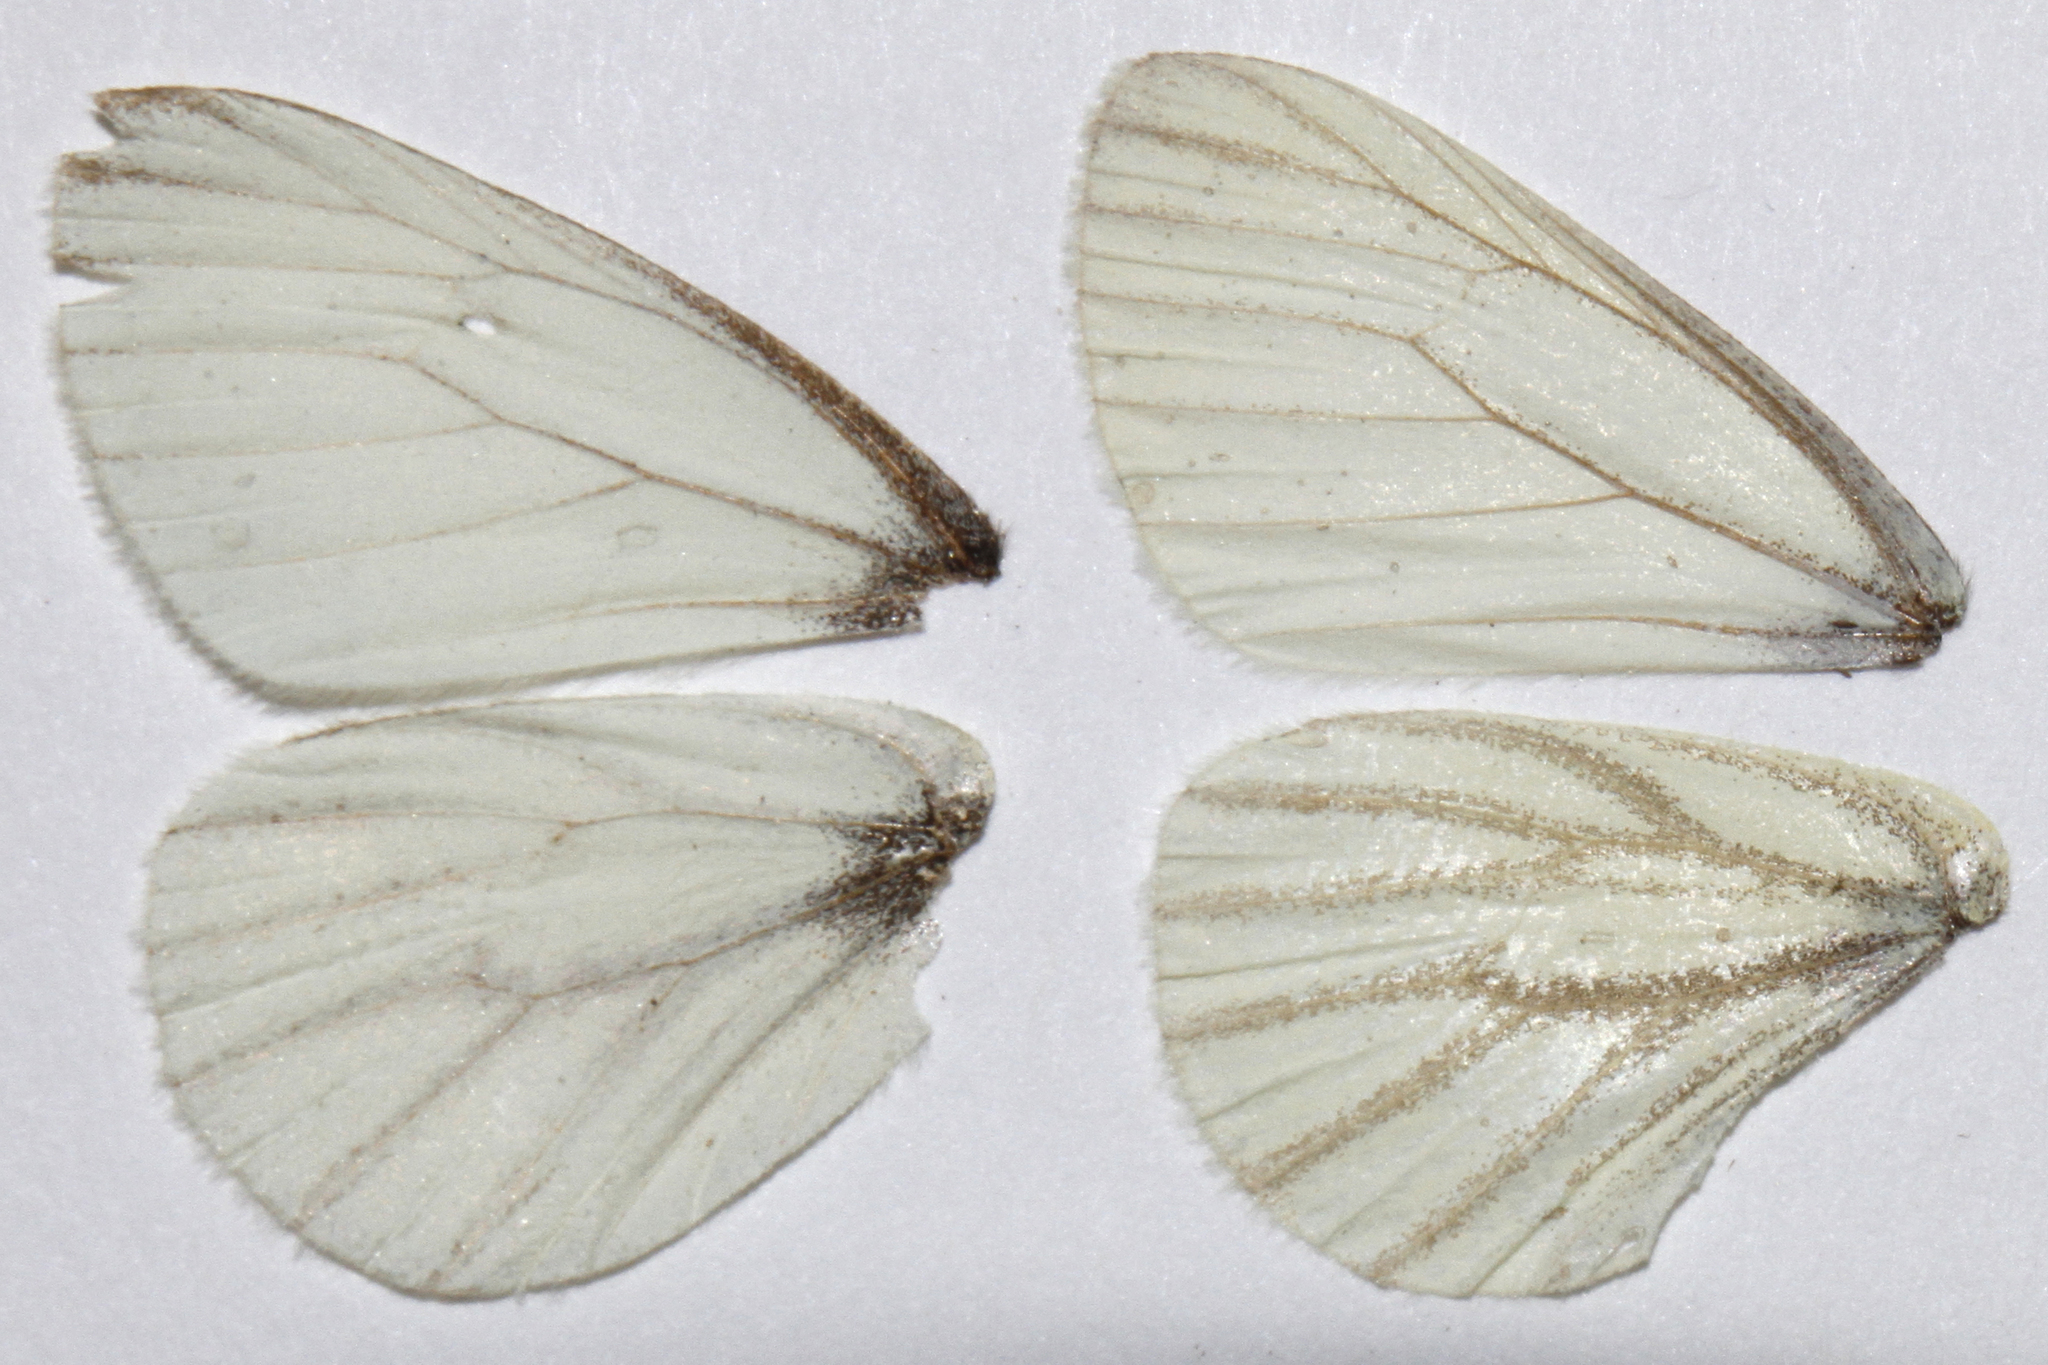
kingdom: Animalia
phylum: Arthropoda
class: Insecta
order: Lepidoptera
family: Pieridae
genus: Pieris
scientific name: Pieris marginalis
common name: Margined white
